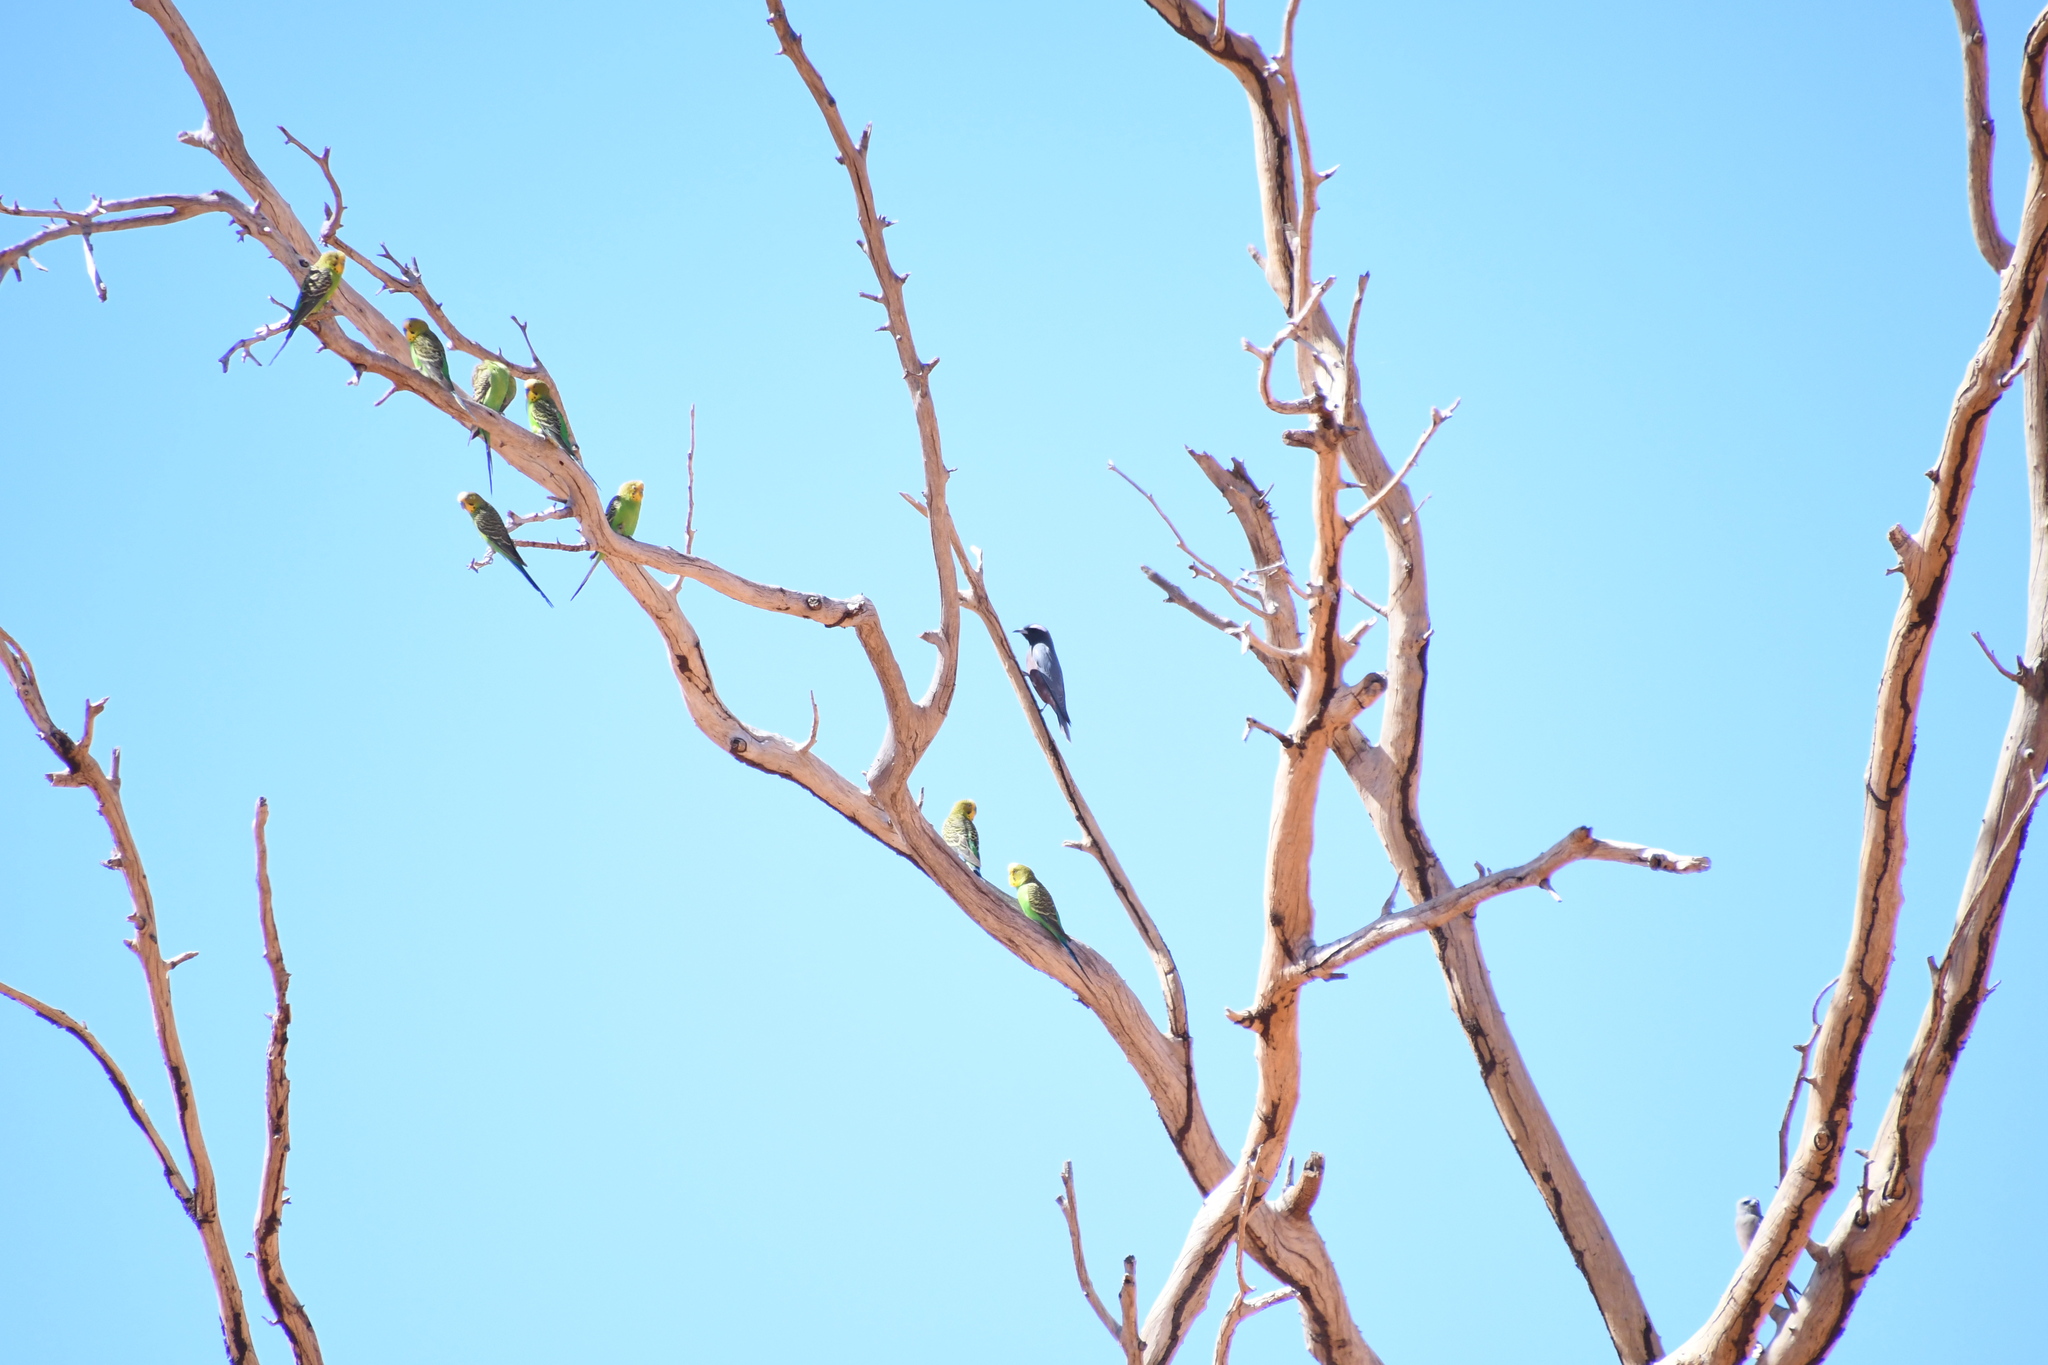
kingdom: Animalia
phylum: Chordata
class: Aves
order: Passeriformes
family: Artamidae
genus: Artamus
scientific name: Artamus superciliosus
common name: White-browed woodswallow
